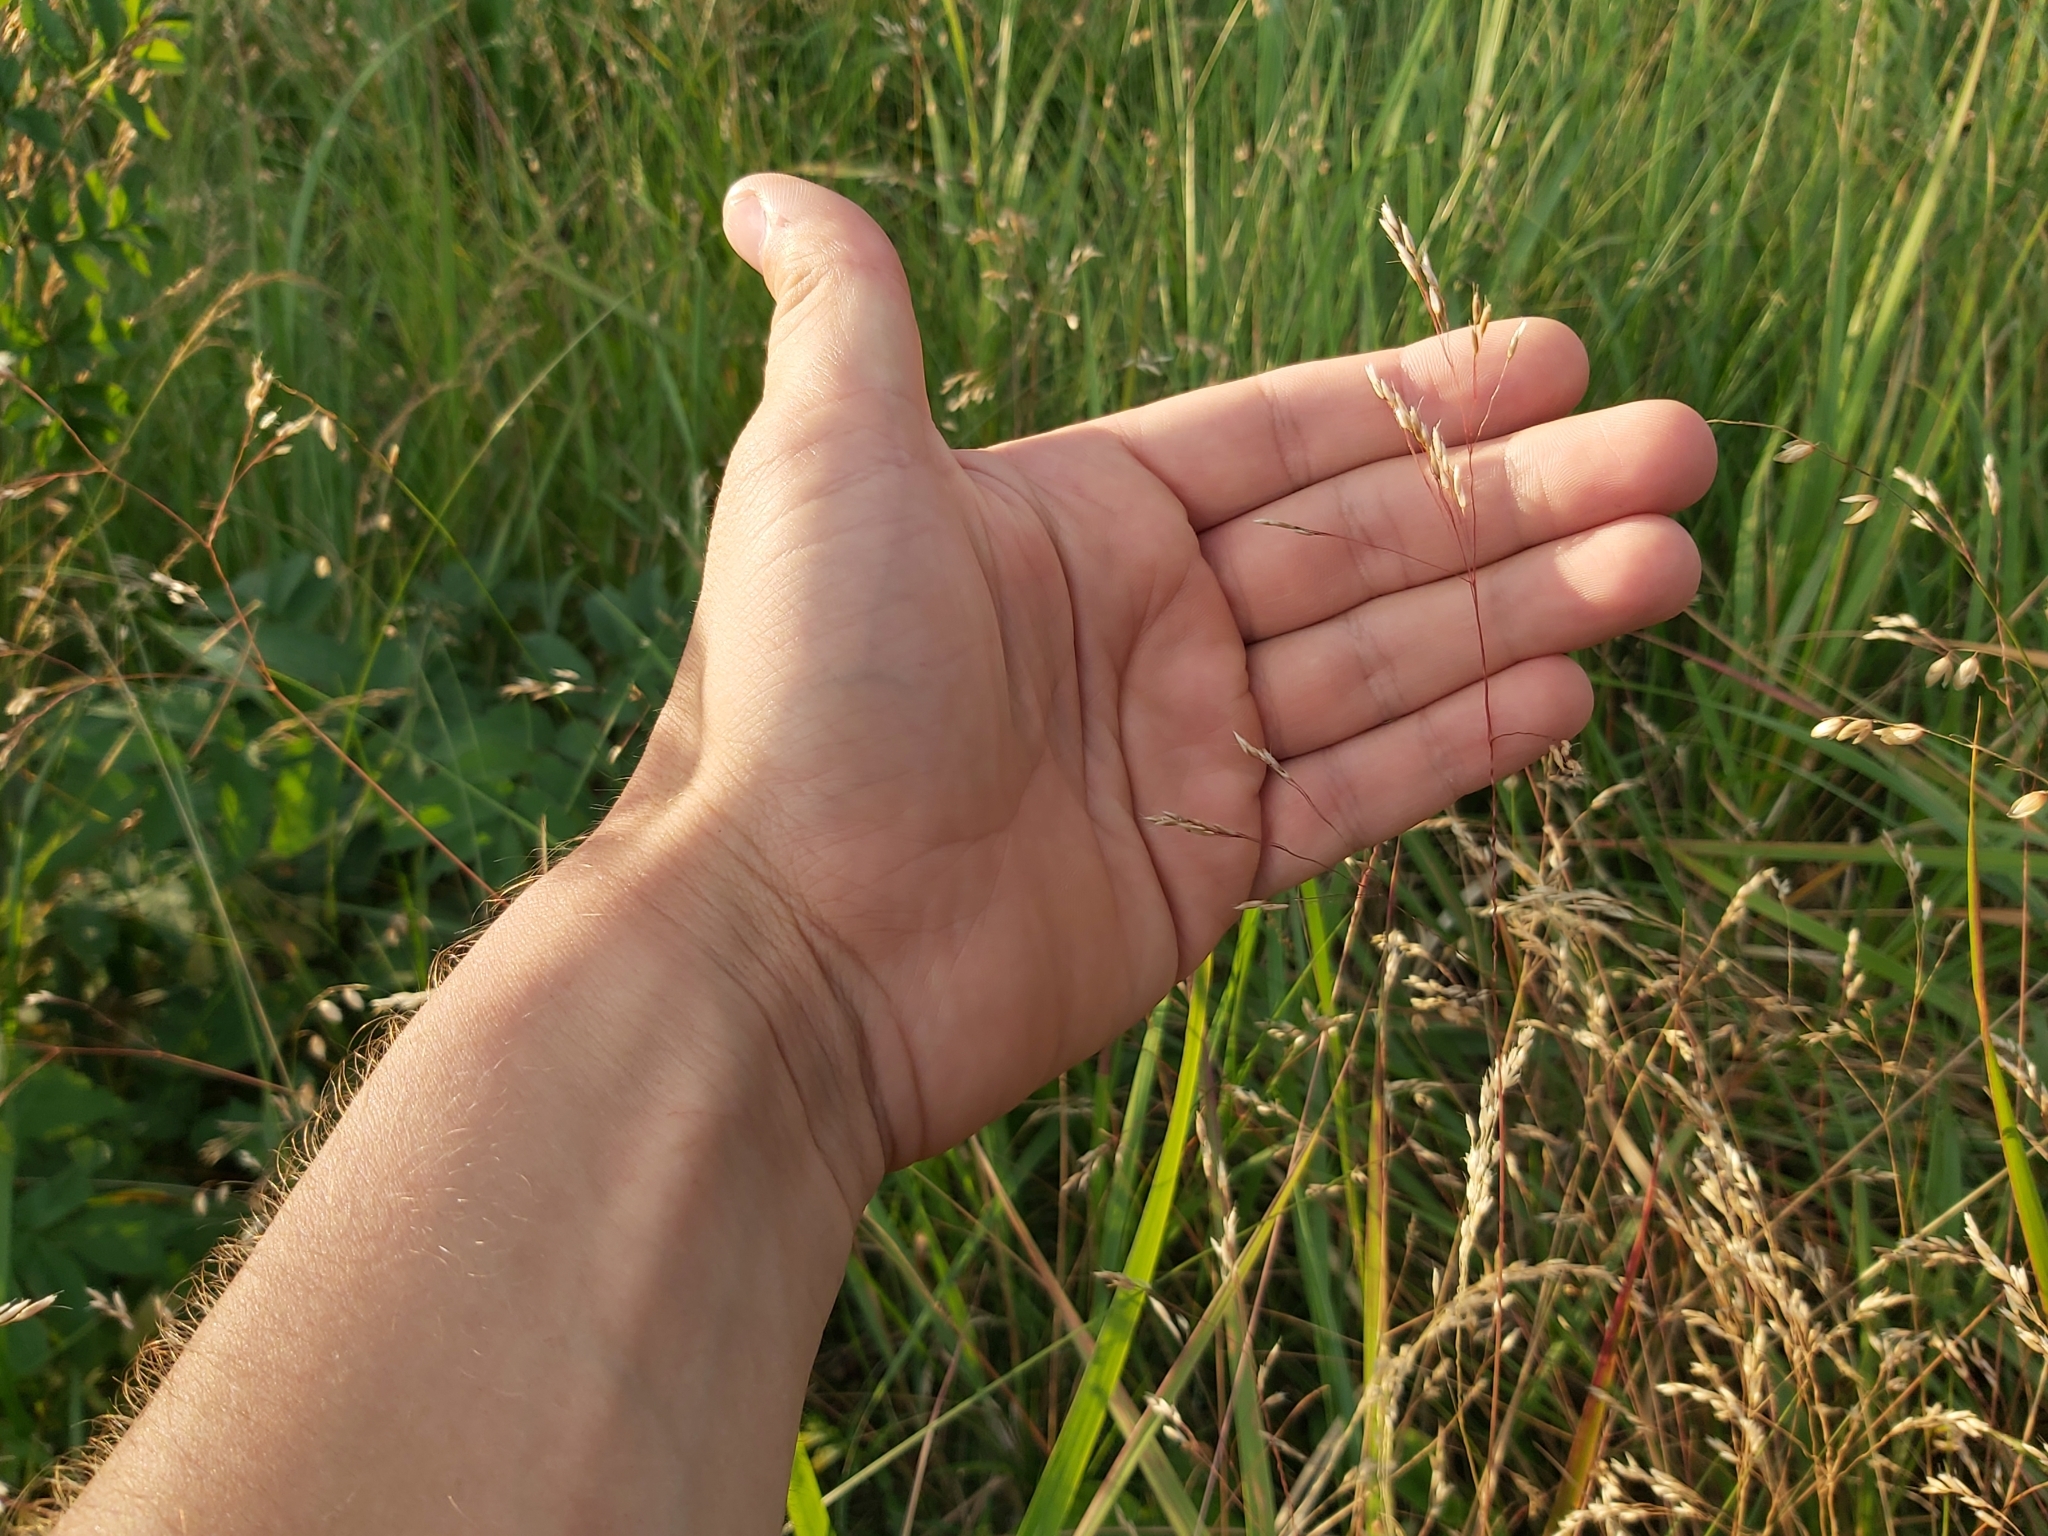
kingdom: Plantae
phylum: Tracheophyta
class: Liliopsida
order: Poales
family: Poaceae
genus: Avenella
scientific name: Avenella flexuosa
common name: Wavy hairgrass
